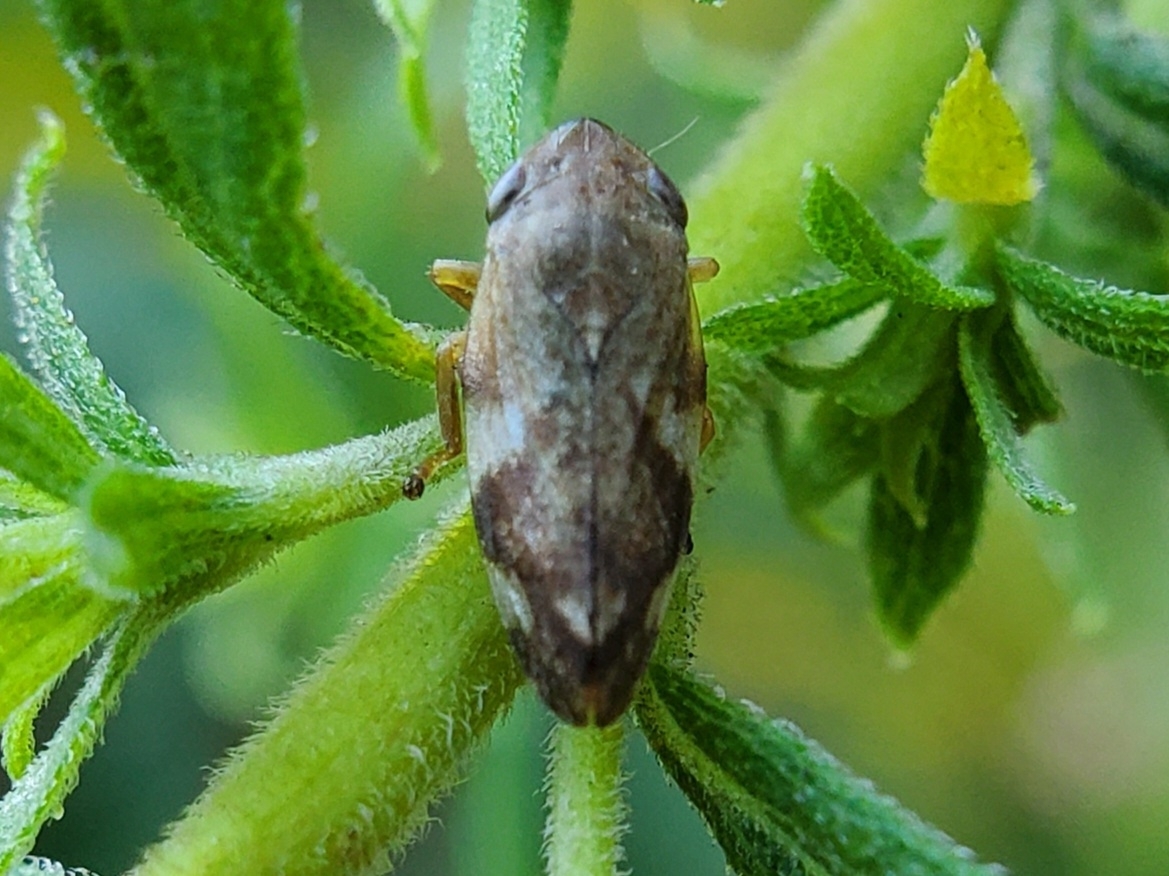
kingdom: Animalia
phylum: Arthropoda
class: Insecta
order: Hemiptera
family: Aphrophoridae
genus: Philaenus
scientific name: Philaenus spumarius
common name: Meadow spittlebug
